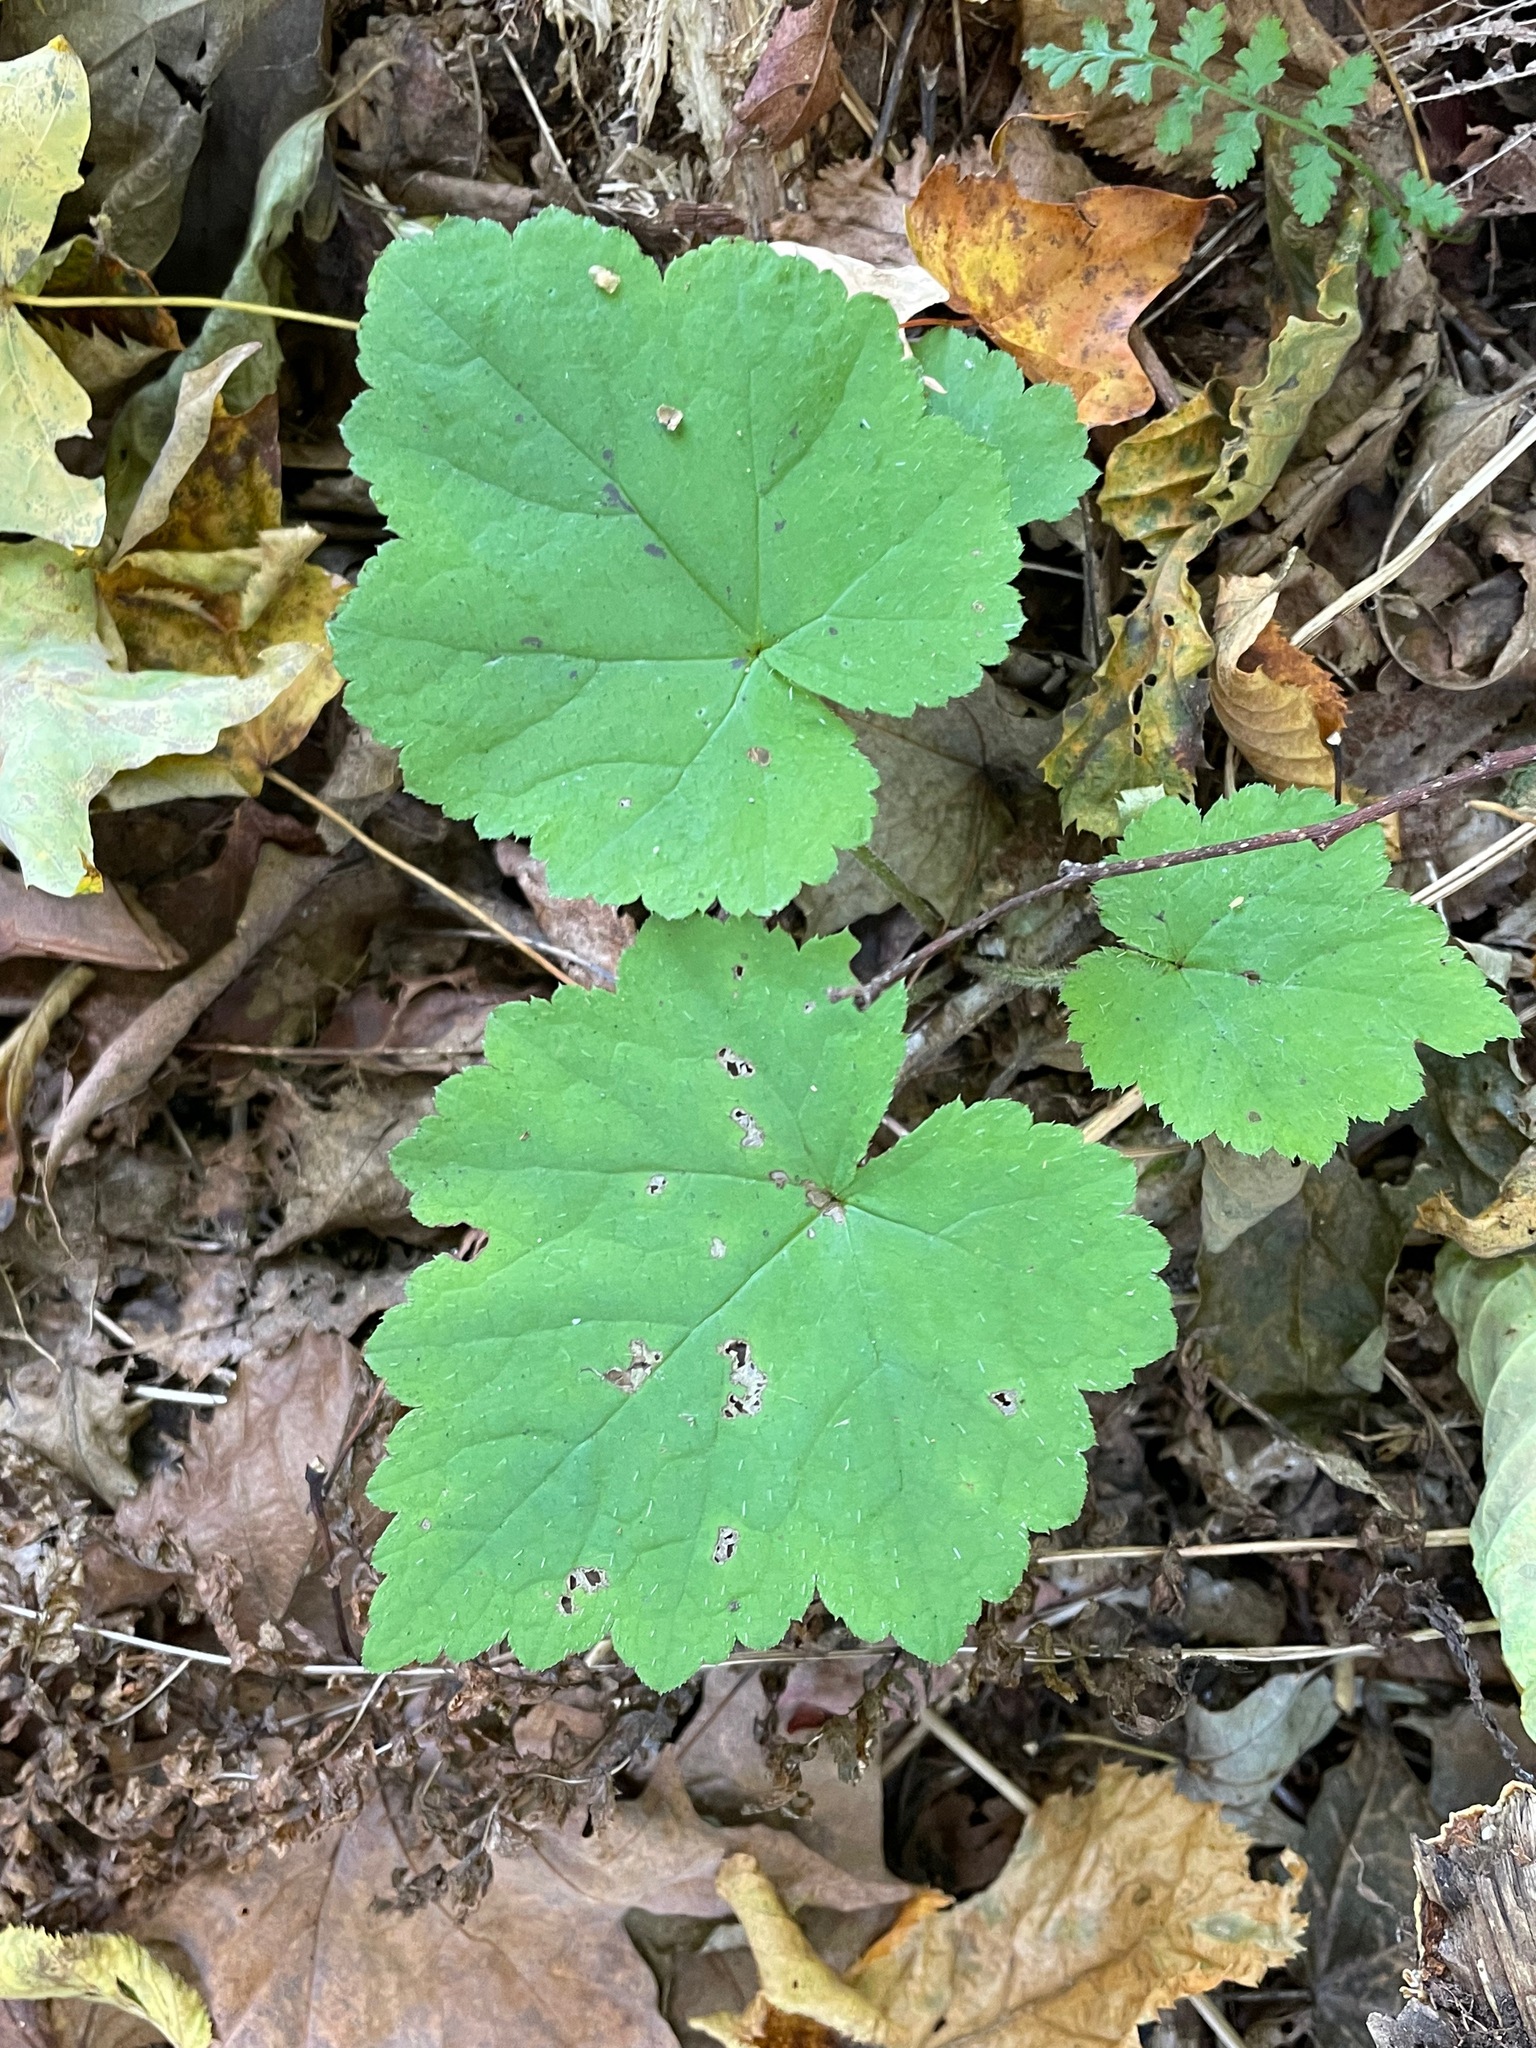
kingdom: Plantae
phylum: Tracheophyta
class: Magnoliopsida
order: Saxifragales
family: Saxifragaceae
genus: Tiarella
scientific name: Tiarella stolonifera
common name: Stoloniferous foamflower
